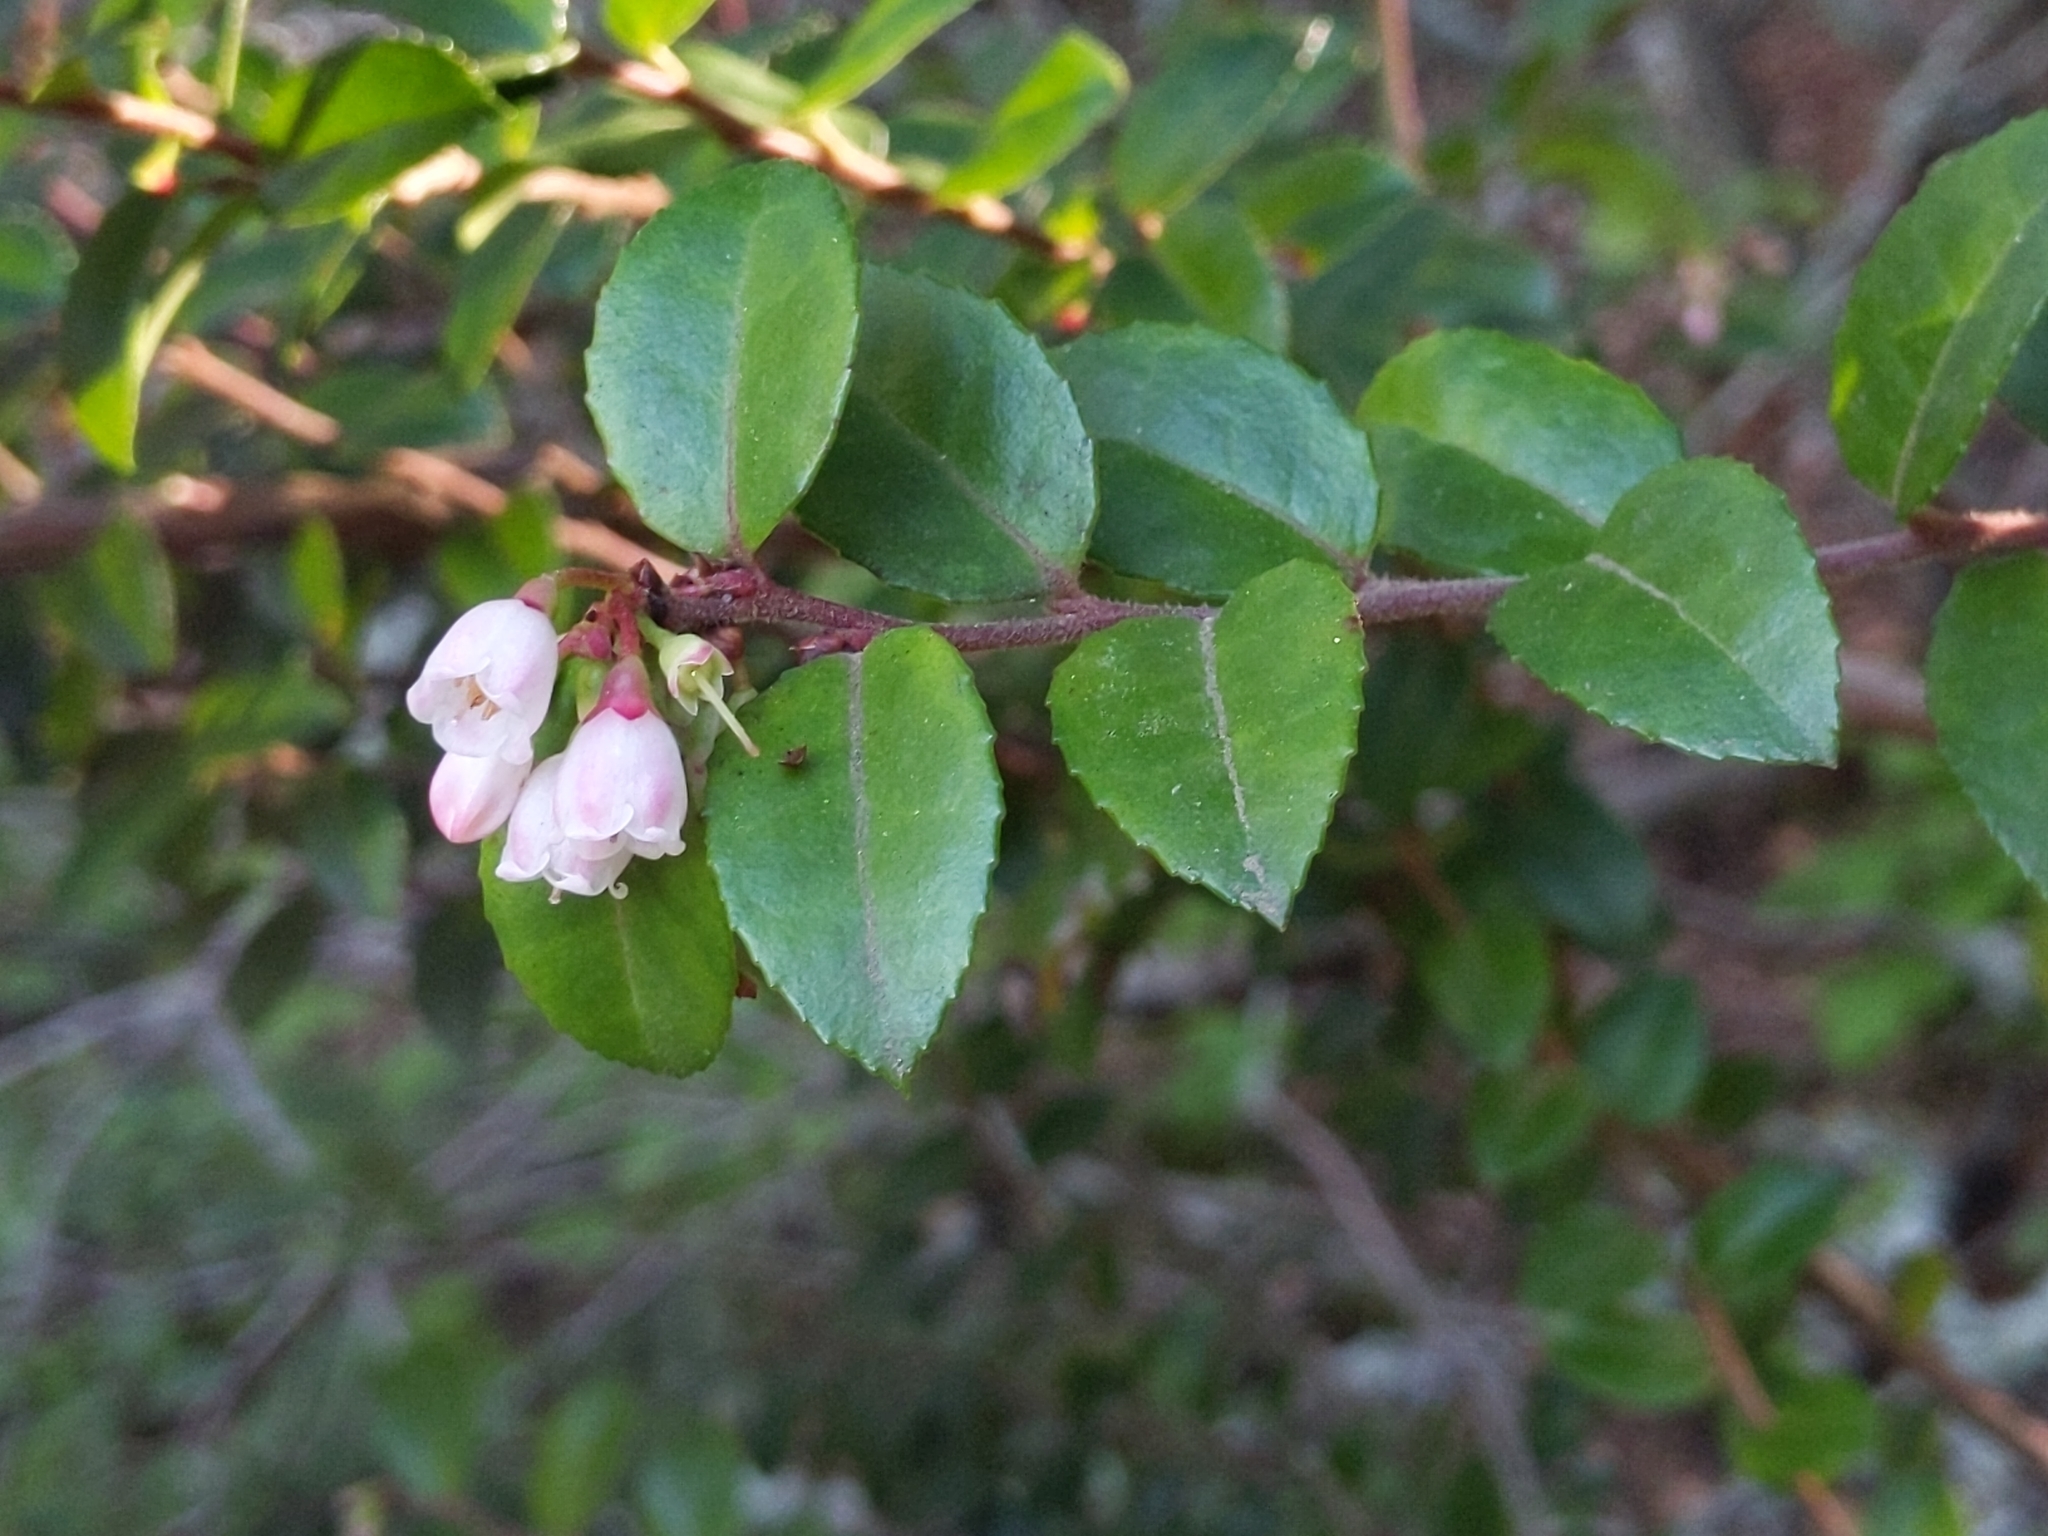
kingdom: Plantae
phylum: Tracheophyta
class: Magnoliopsida
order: Ericales
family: Ericaceae
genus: Vaccinium
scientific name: Vaccinium ovatum
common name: California-huckleberry
